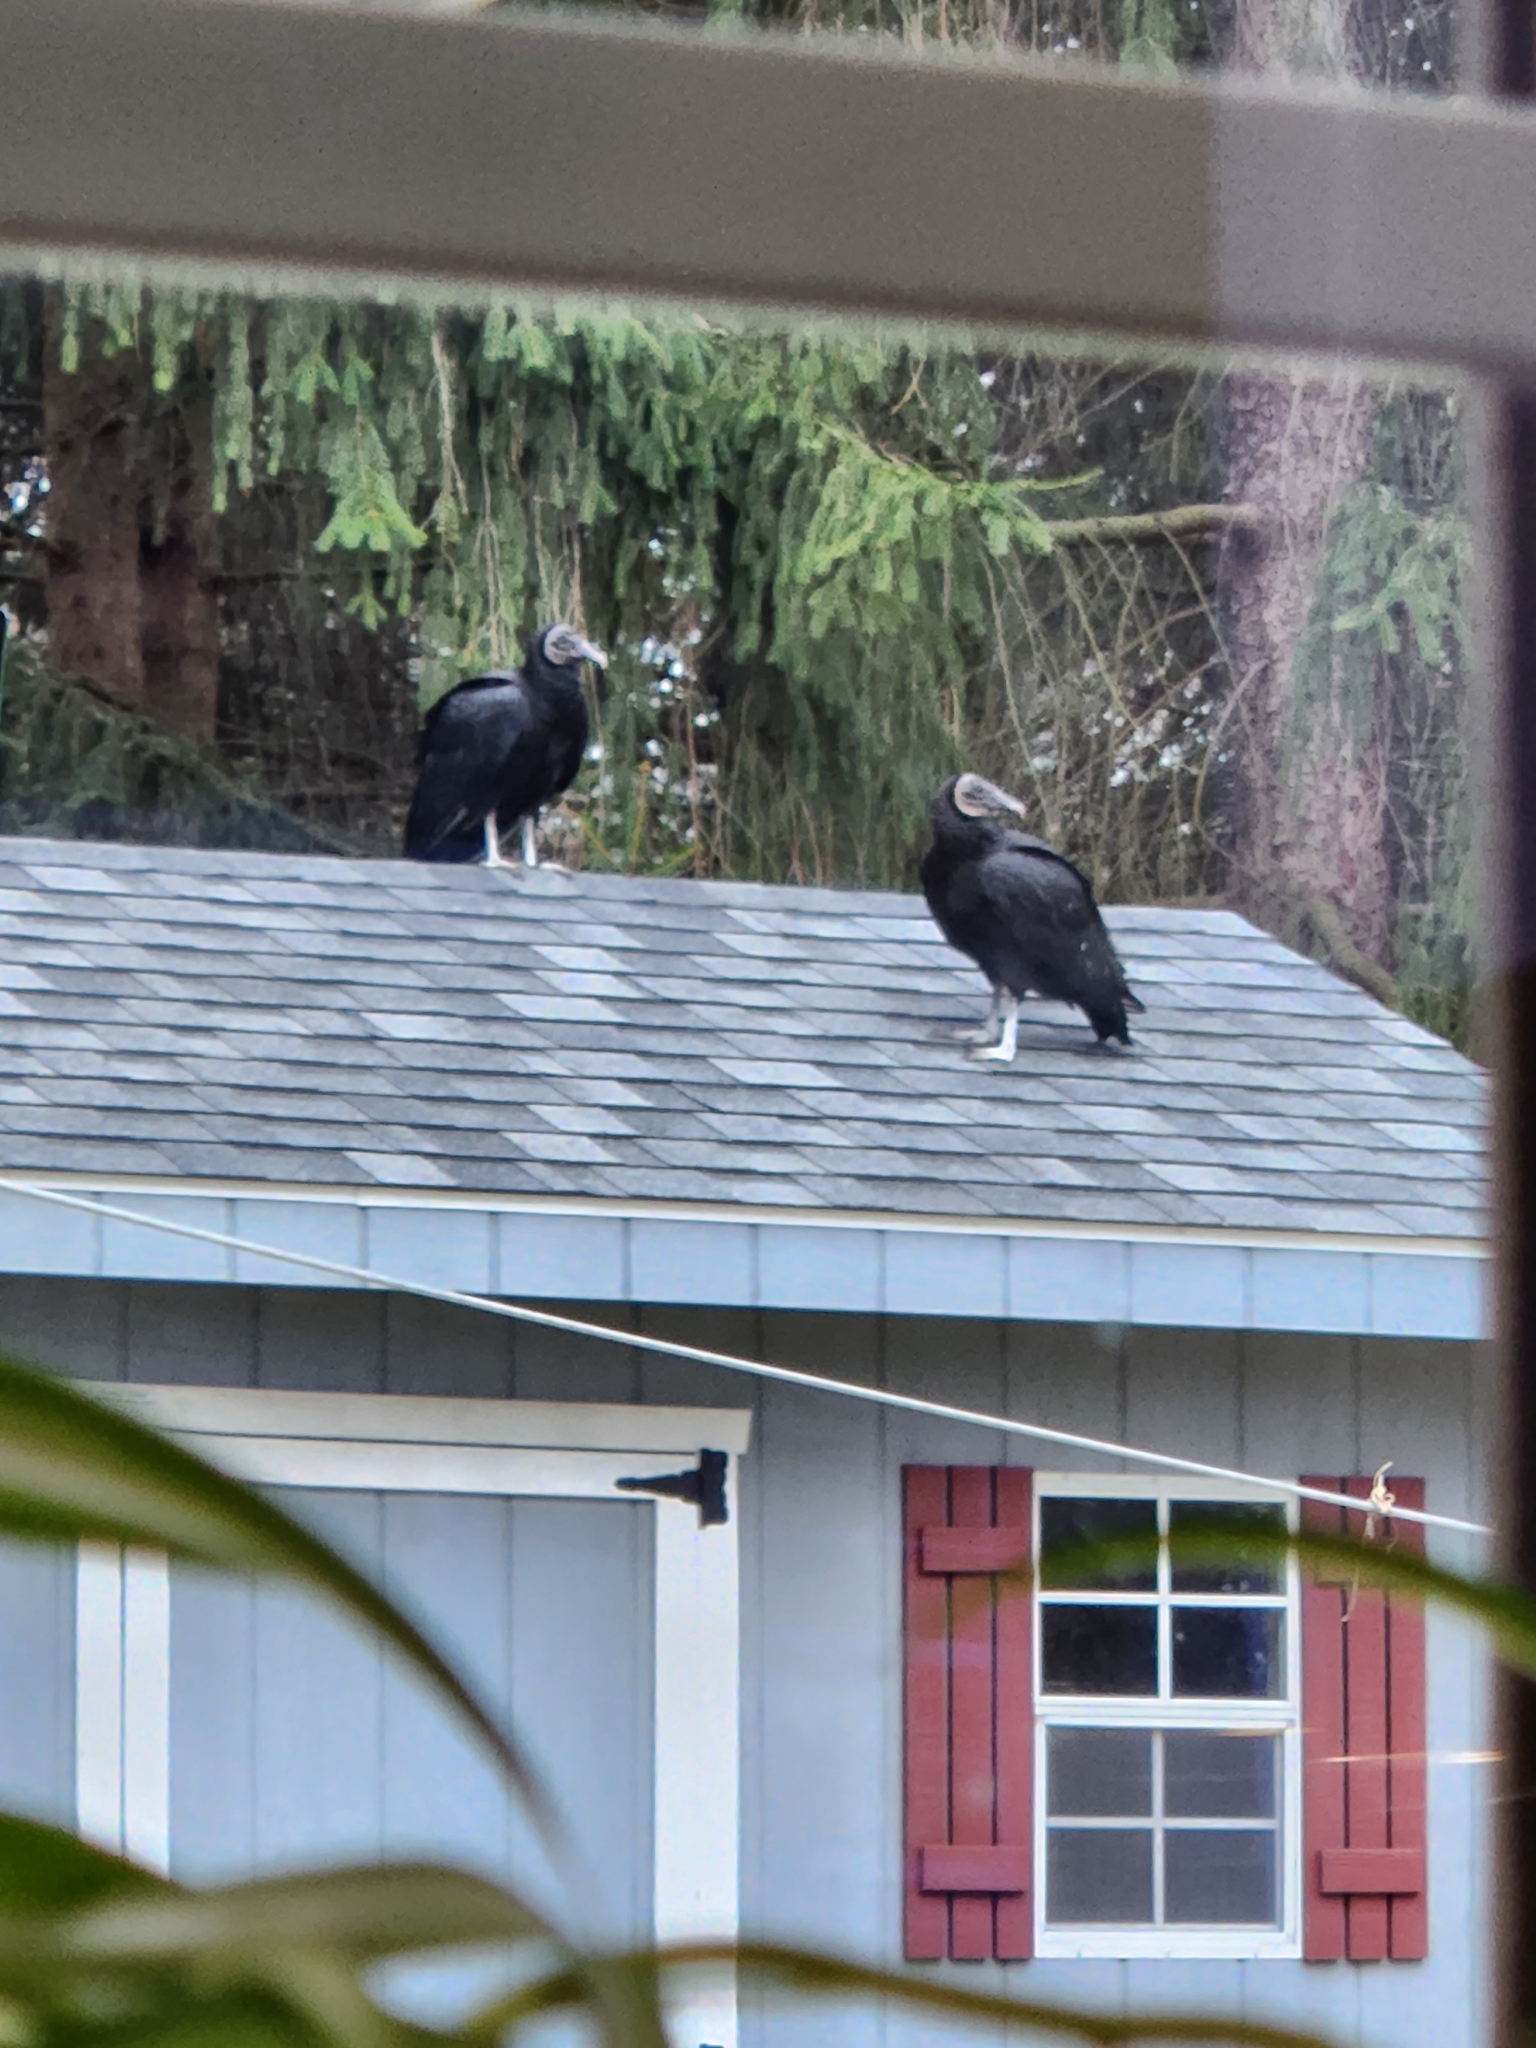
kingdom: Animalia
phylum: Chordata
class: Aves
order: Accipitriformes
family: Cathartidae
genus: Coragyps
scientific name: Coragyps atratus
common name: Black vulture
